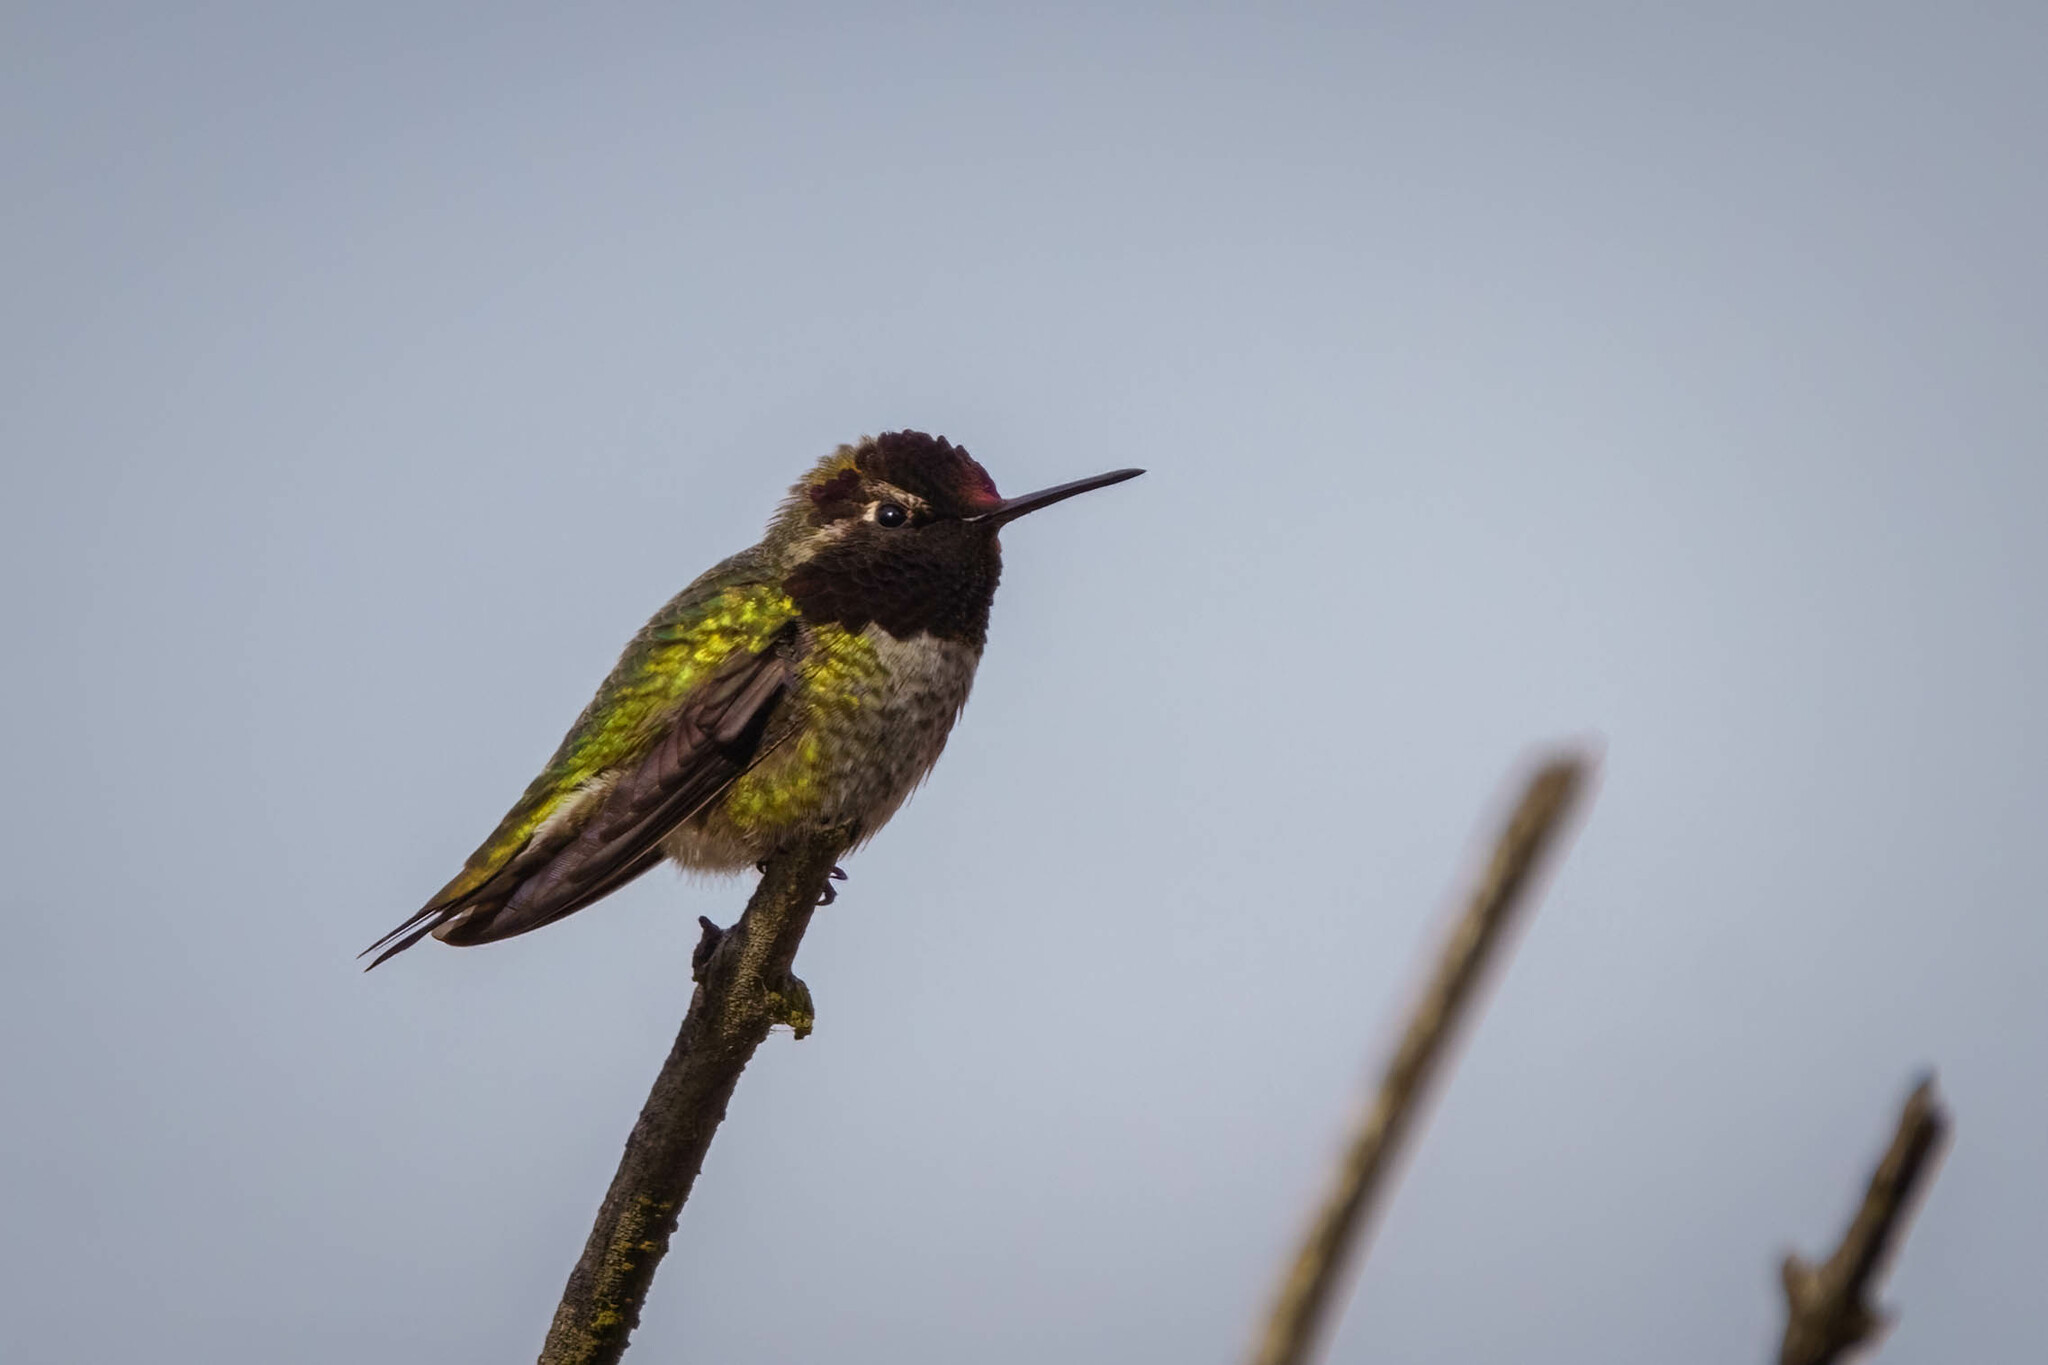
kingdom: Animalia
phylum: Chordata
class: Aves
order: Apodiformes
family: Trochilidae
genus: Calypte
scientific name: Calypte anna
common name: Anna's hummingbird
